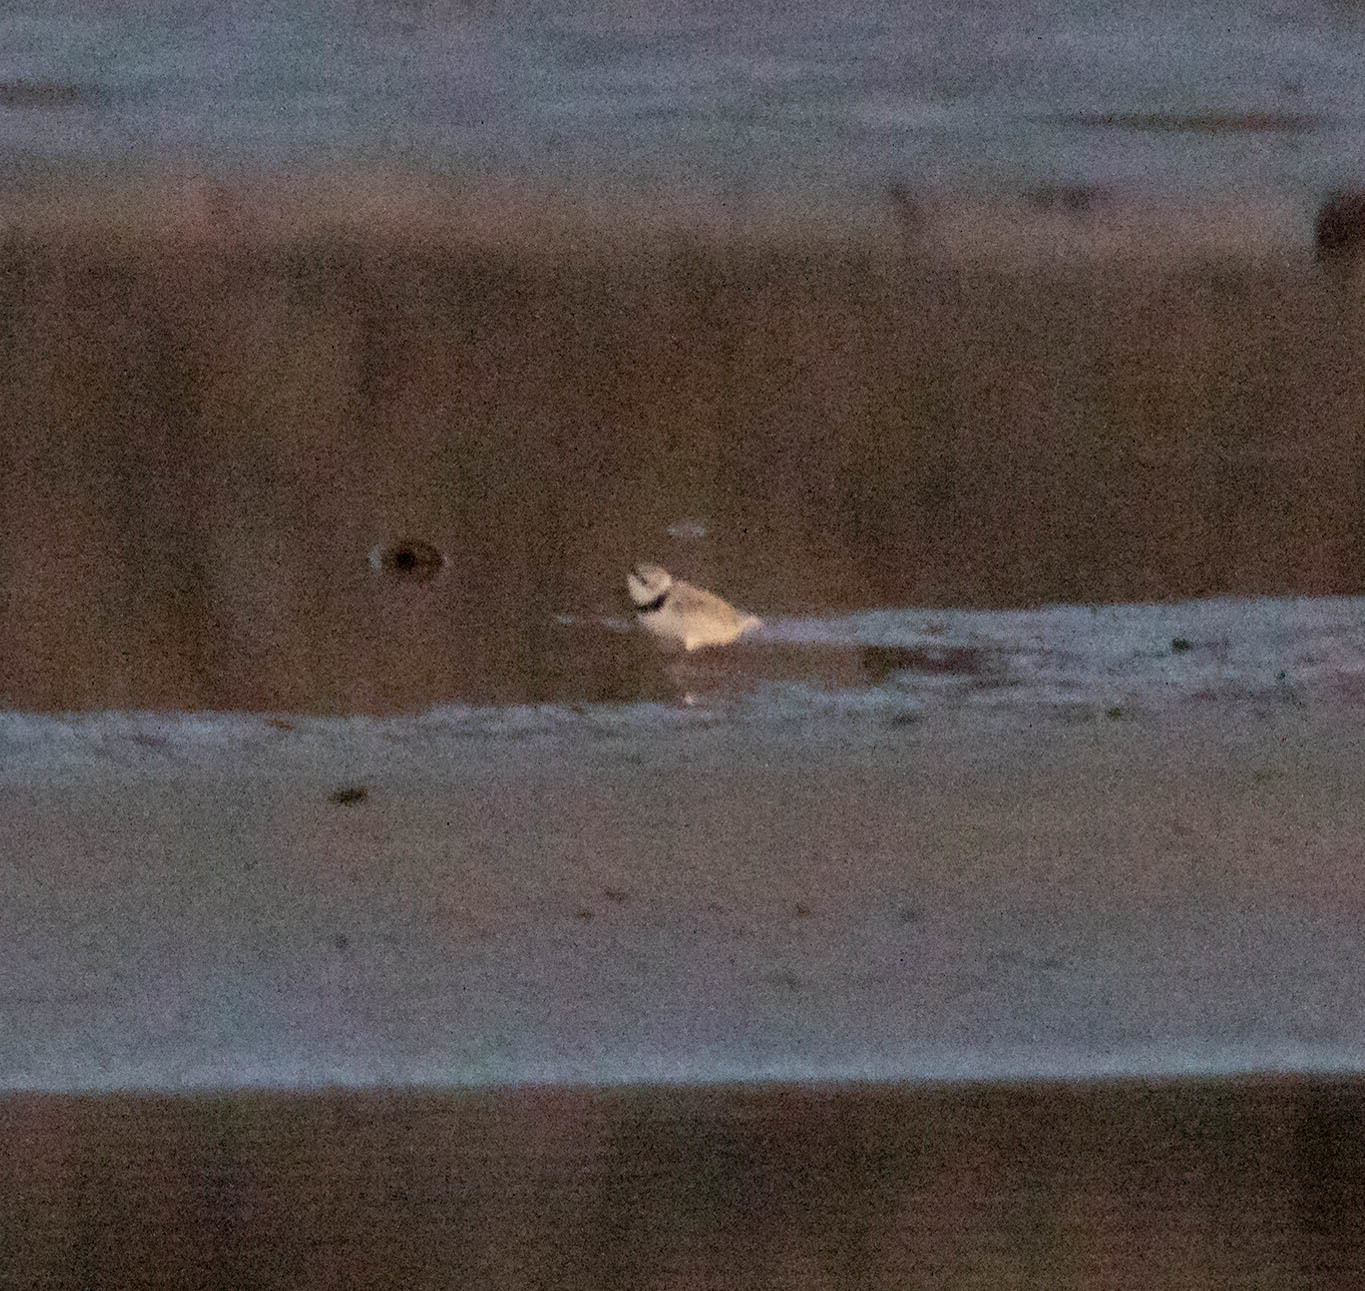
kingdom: Animalia
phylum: Chordata
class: Aves
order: Charadriiformes
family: Charadriidae
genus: Charadrius
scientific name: Charadrius melodus
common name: Piping plover
